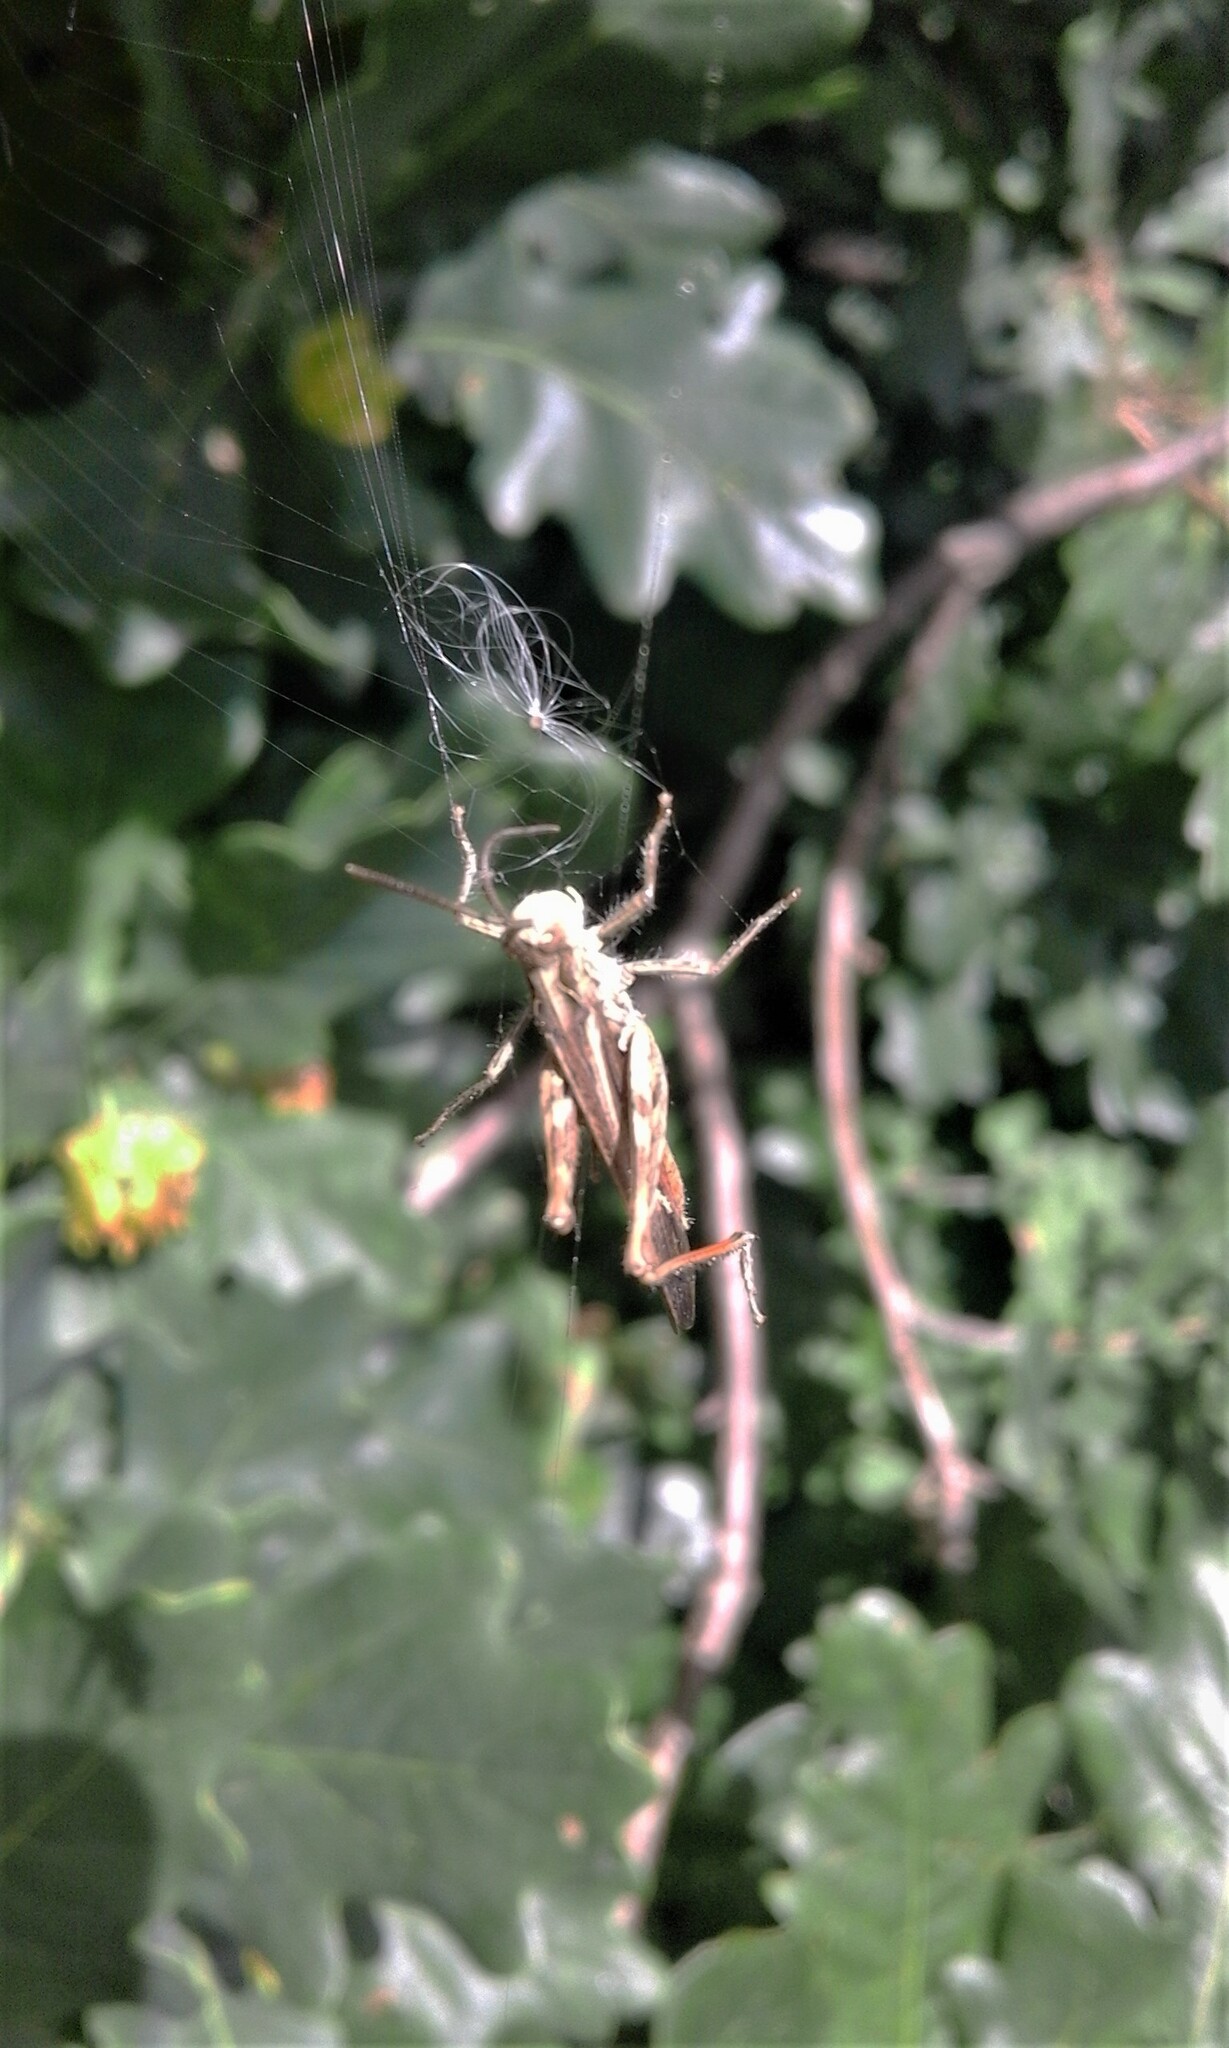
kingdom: Animalia
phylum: Arthropoda
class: Insecta
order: Orthoptera
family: Acrididae
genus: Chorthippus
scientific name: Chorthippus brunneus
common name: Field grasshopper
